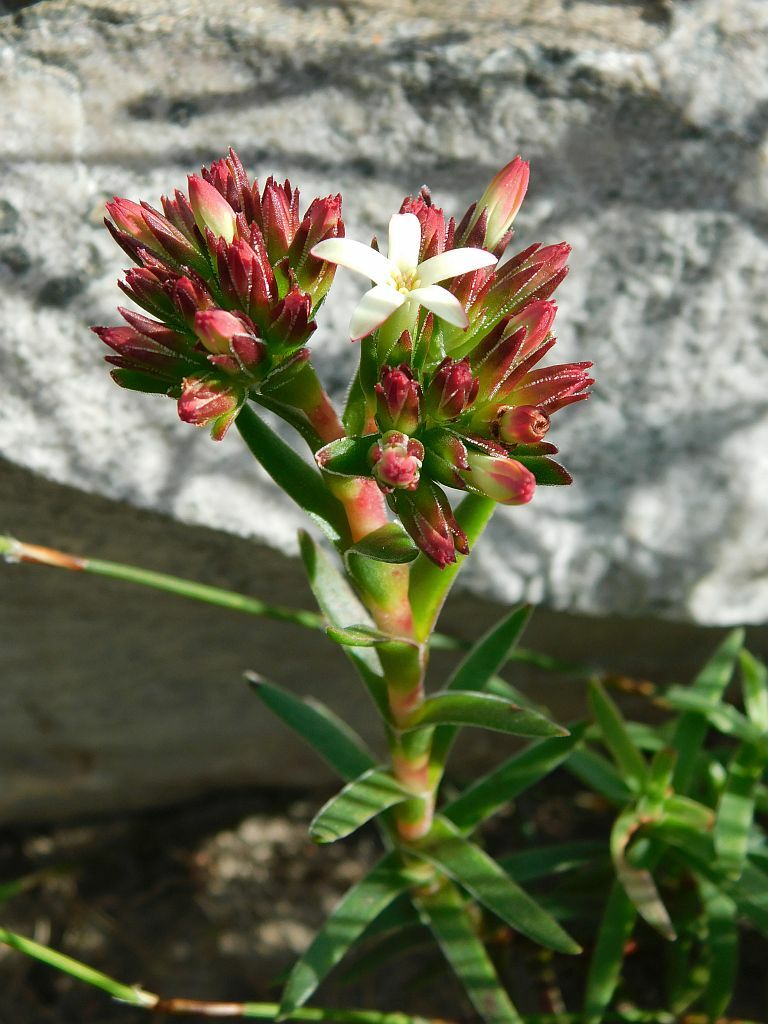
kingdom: Plantae
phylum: Tracheophyta
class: Magnoliopsida
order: Saxifragales
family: Crassulaceae
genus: Crassula
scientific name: Crassula fascicularis
